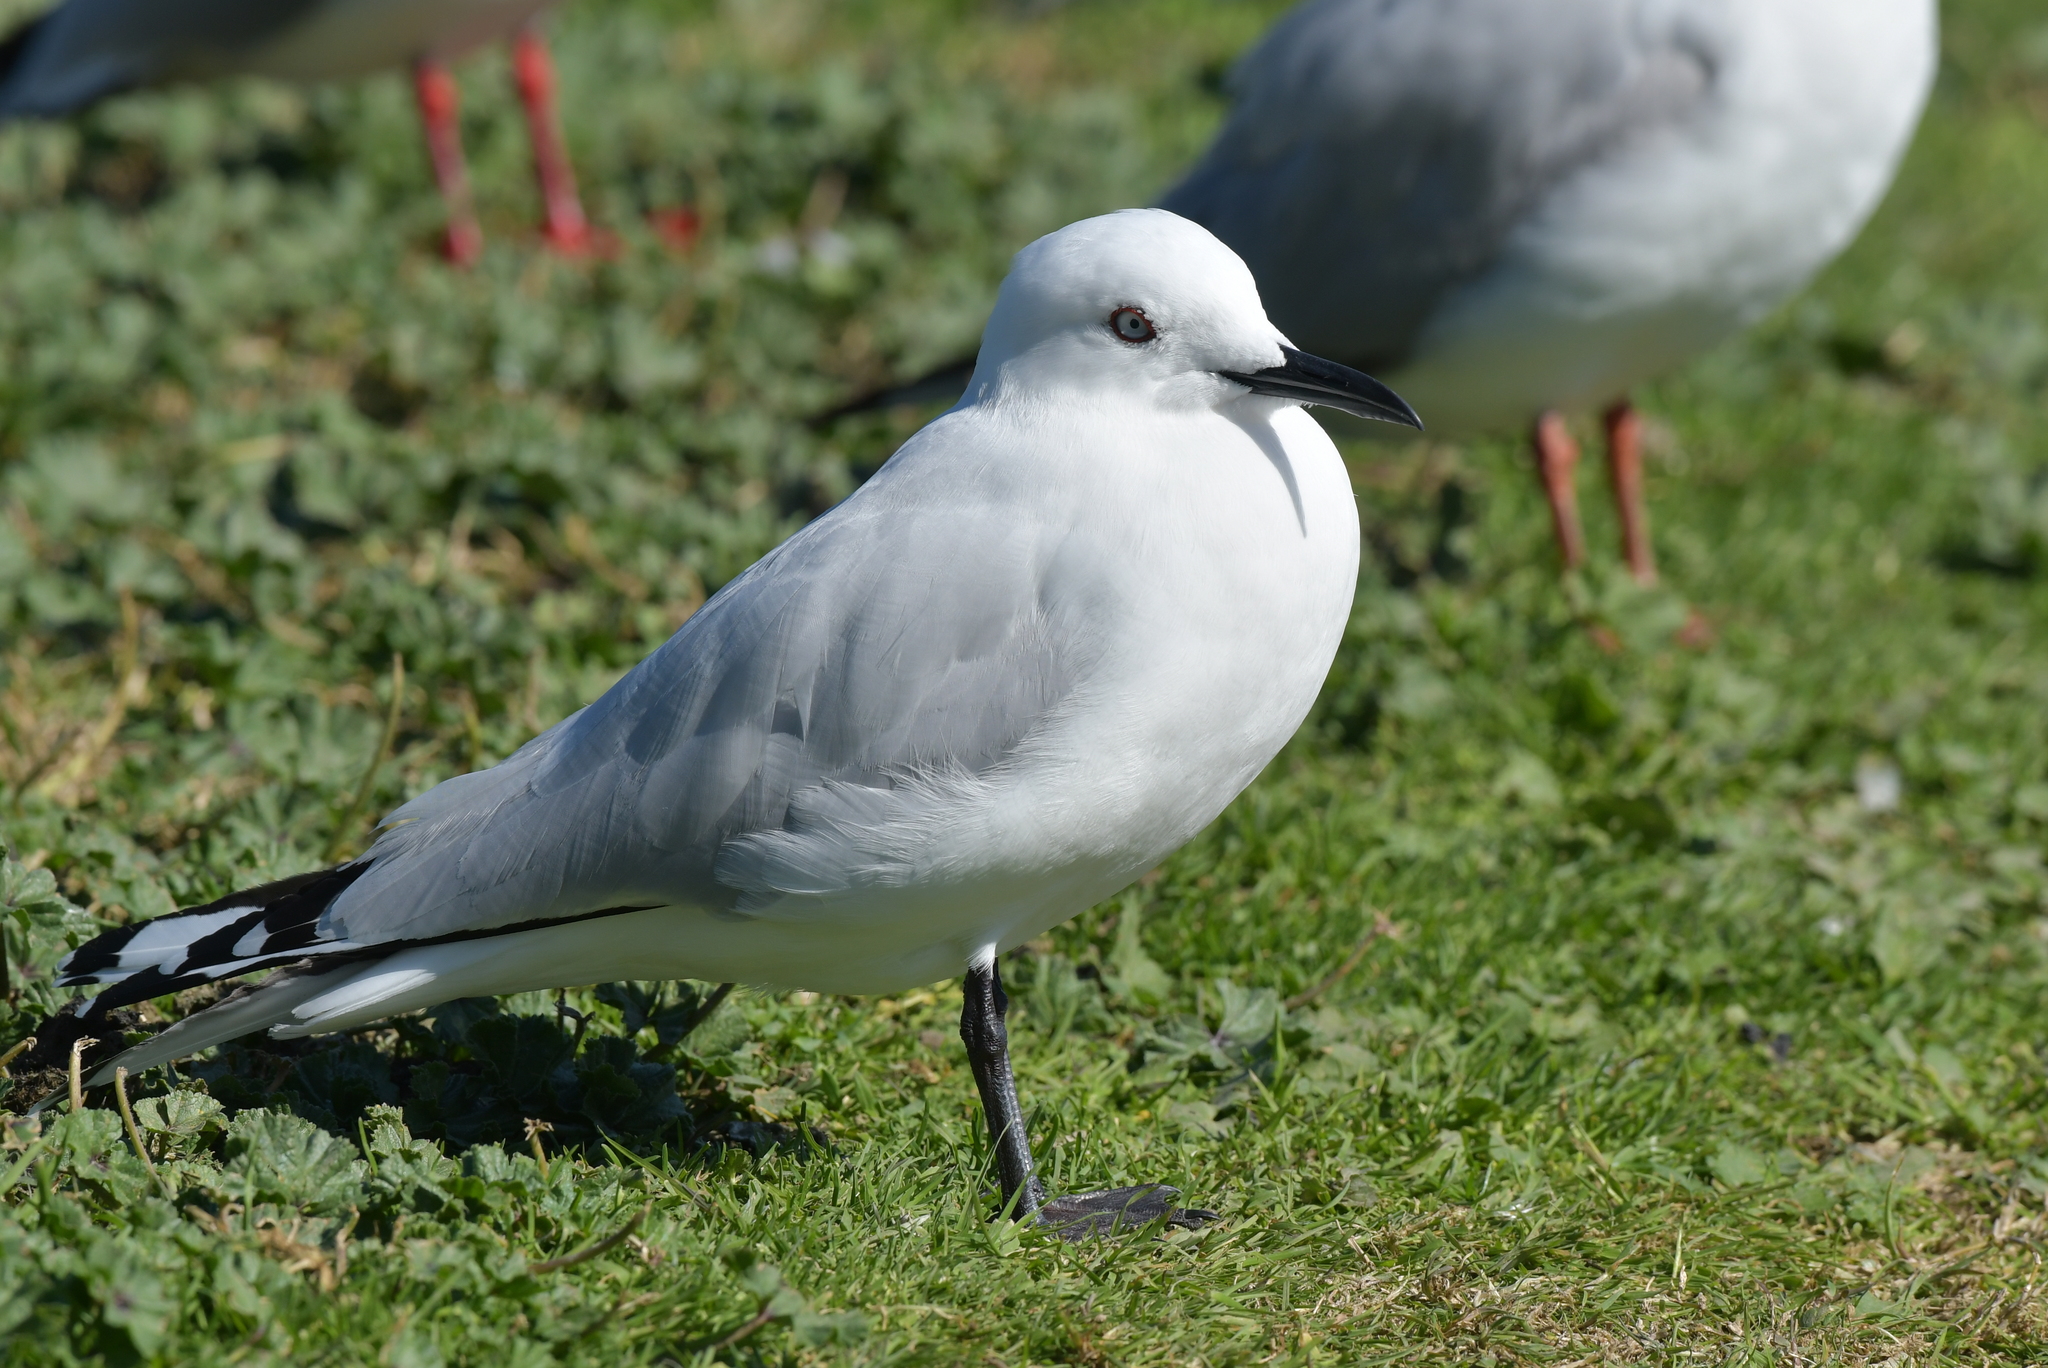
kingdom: Animalia
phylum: Chordata
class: Aves
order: Charadriiformes
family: Laridae
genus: Chroicocephalus
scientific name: Chroicocephalus bulleri
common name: Black-billed gull
